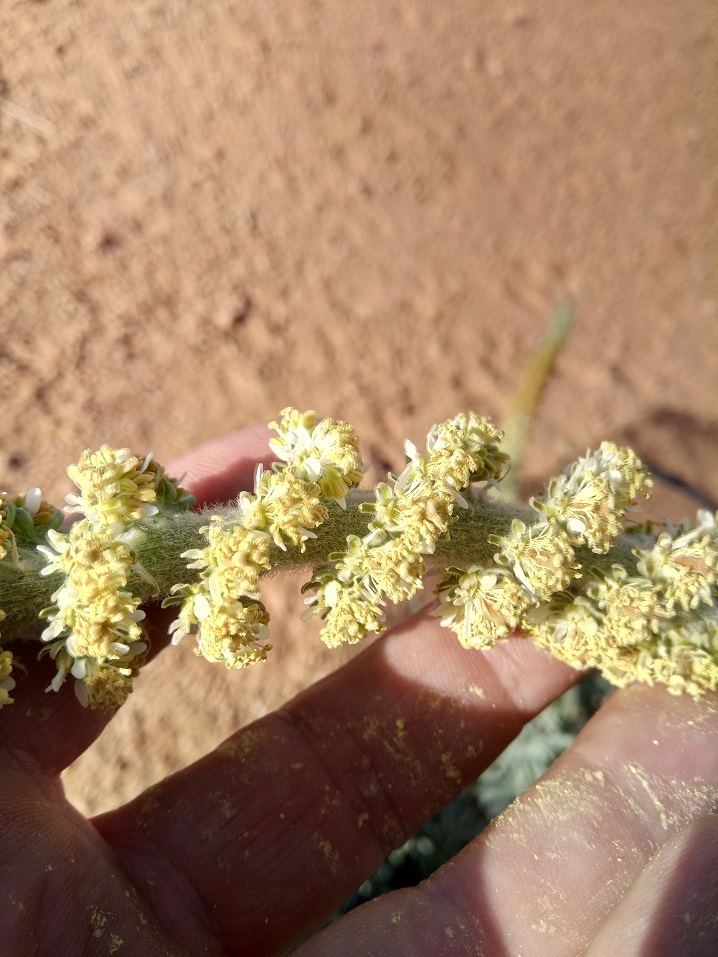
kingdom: Plantae
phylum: Tracheophyta
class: Magnoliopsida
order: Brassicales
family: Resedaceae
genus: Reseda
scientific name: Reseda villosa
